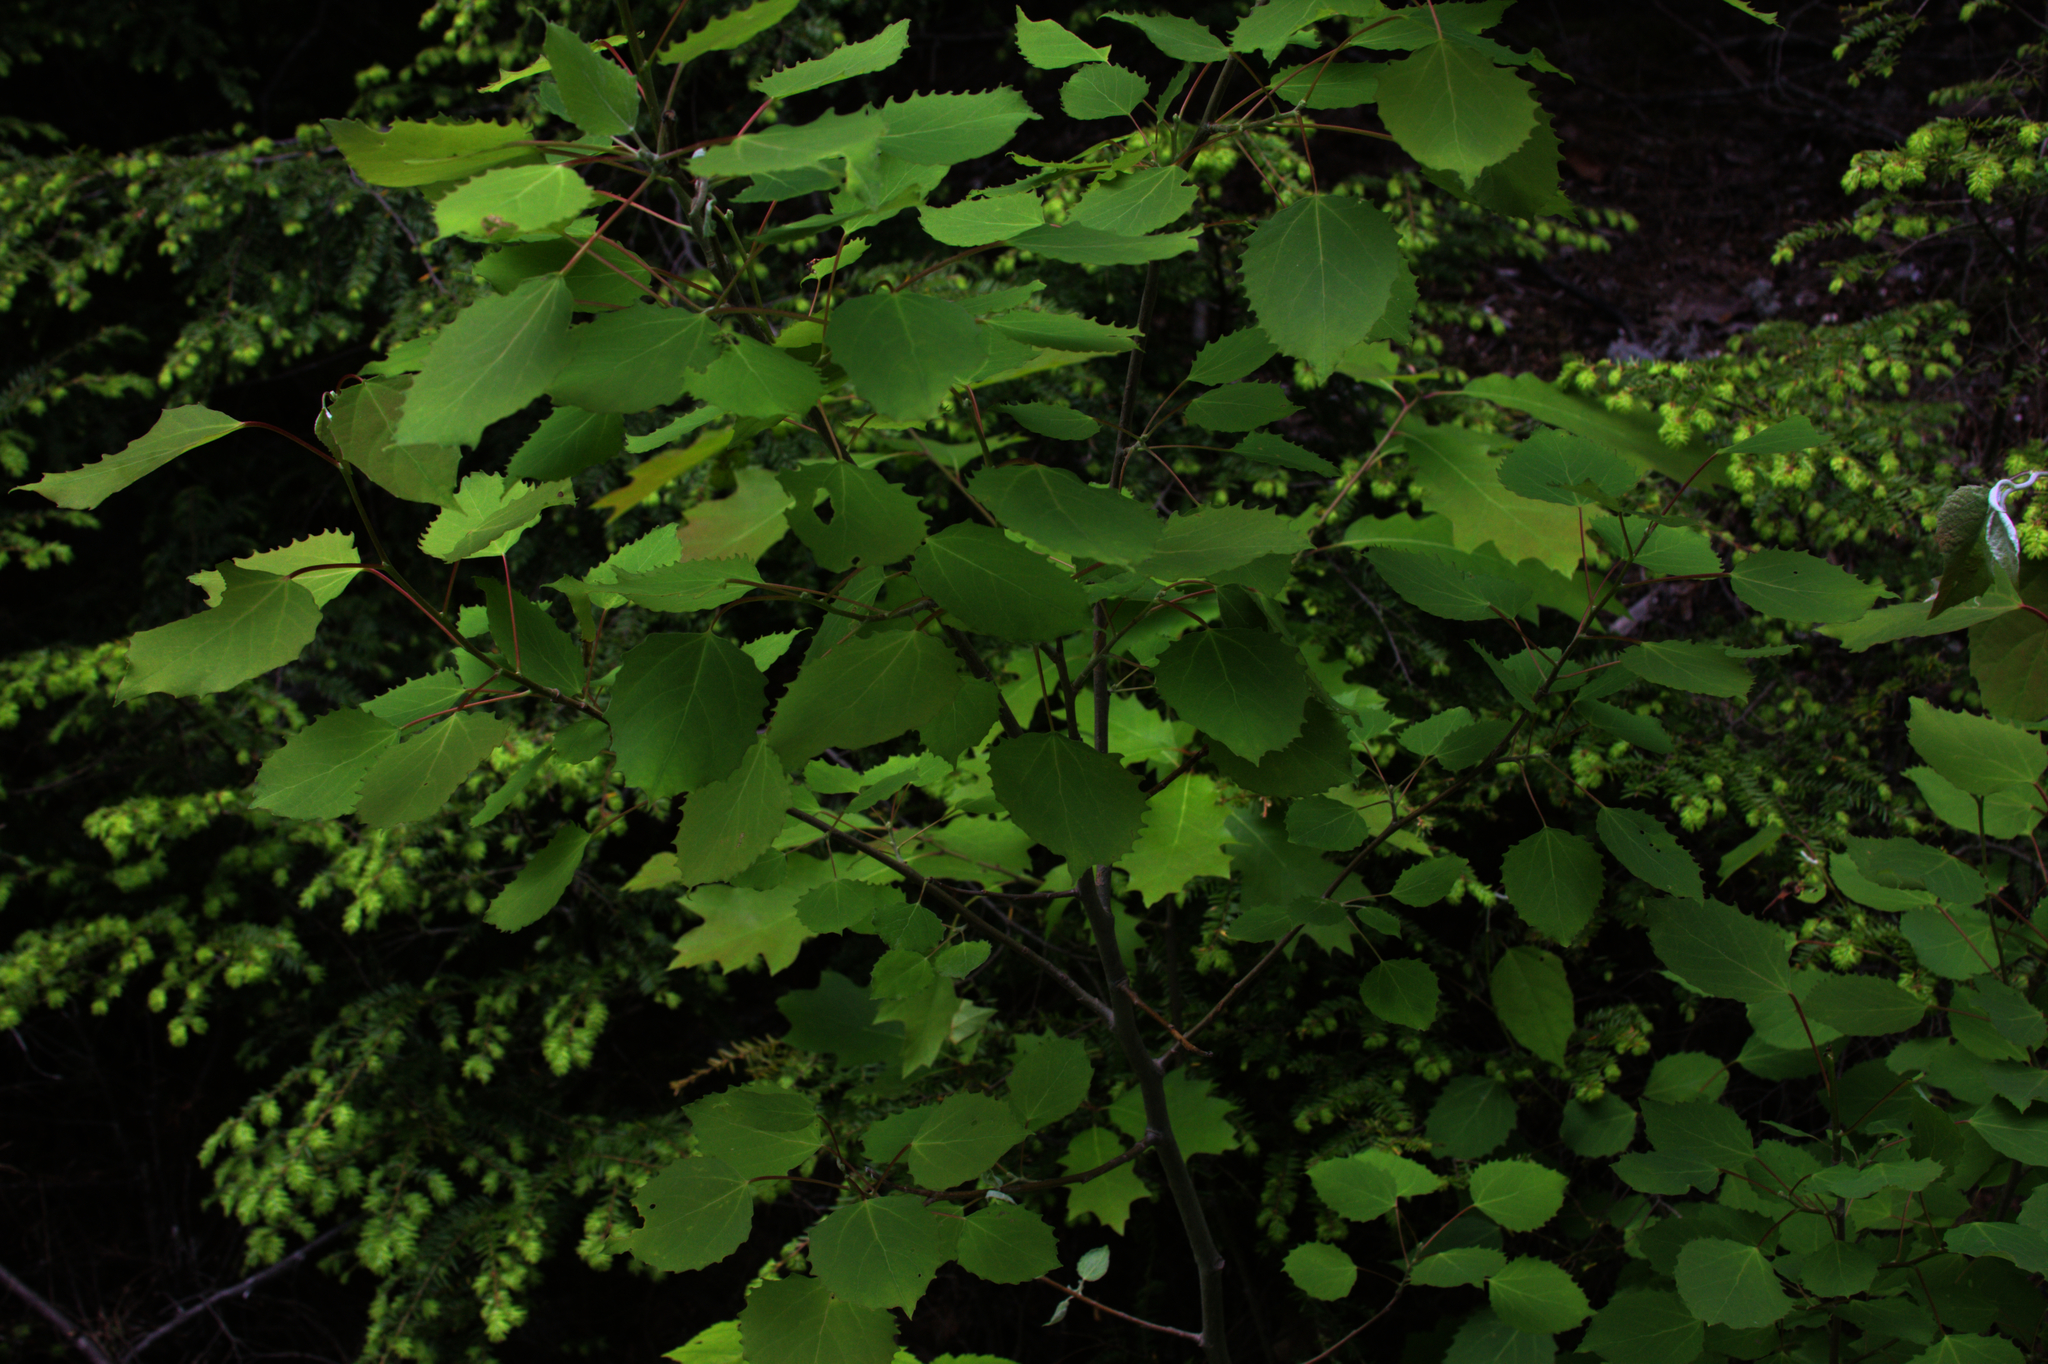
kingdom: Plantae
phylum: Tracheophyta
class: Magnoliopsida
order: Malpighiales
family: Salicaceae
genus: Populus
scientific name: Populus grandidentata
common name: Bigtooth aspen
